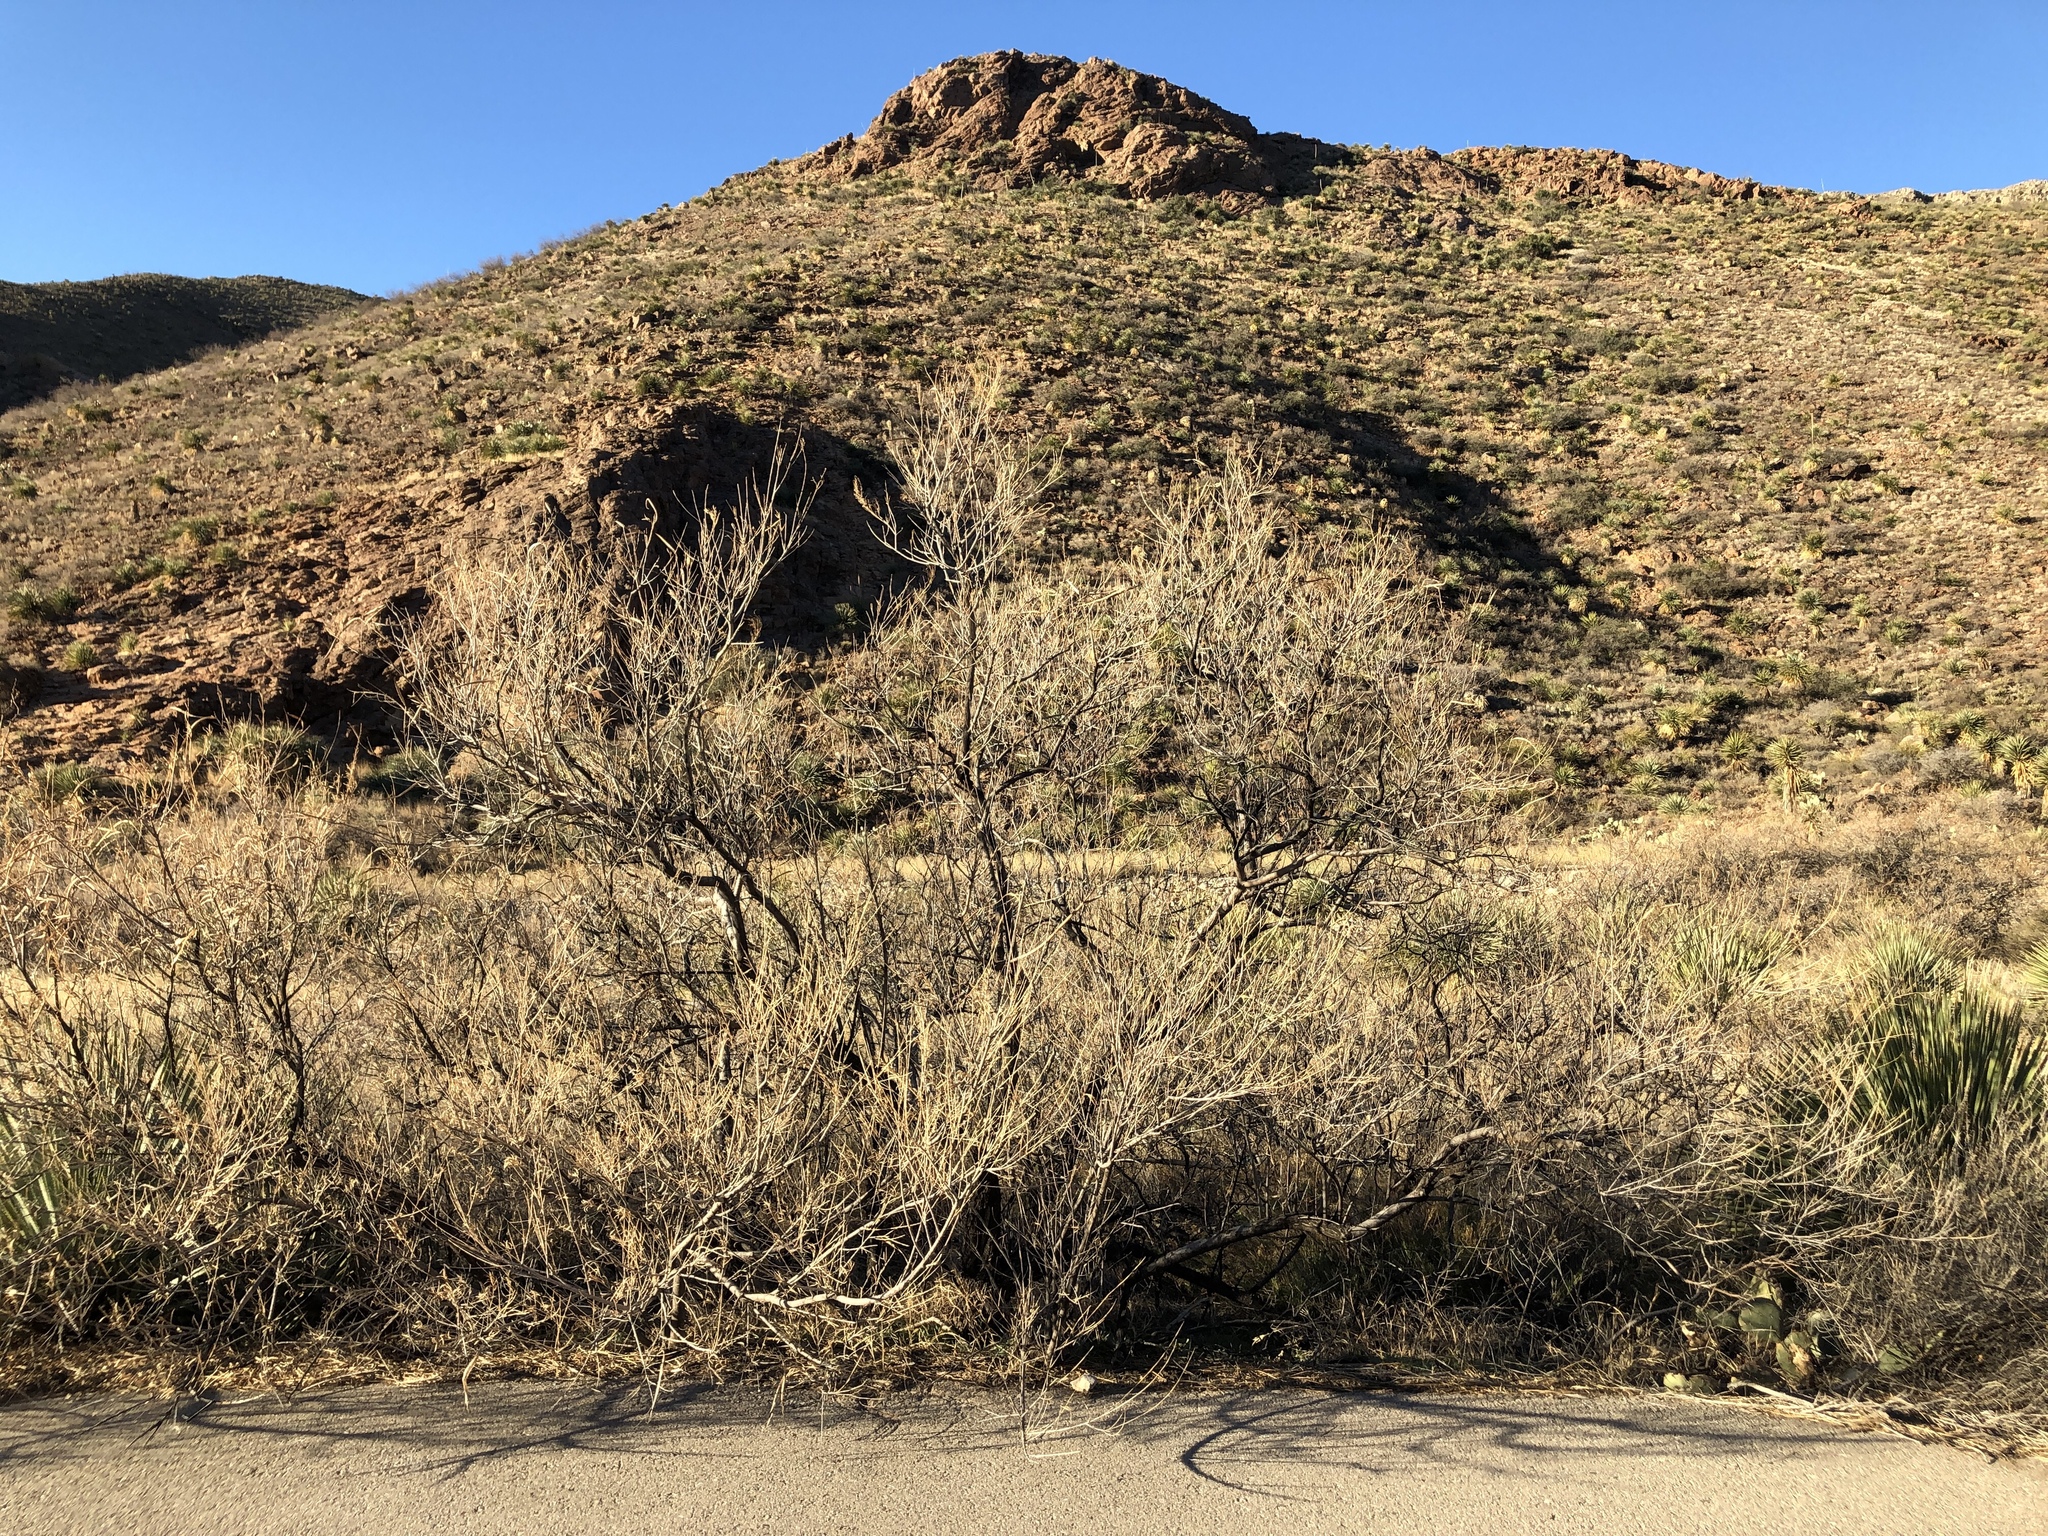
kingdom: Plantae
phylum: Tracheophyta
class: Magnoliopsida
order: Lamiales
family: Bignoniaceae
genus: Chilopsis
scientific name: Chilopsis linearis
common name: Desert-willow
